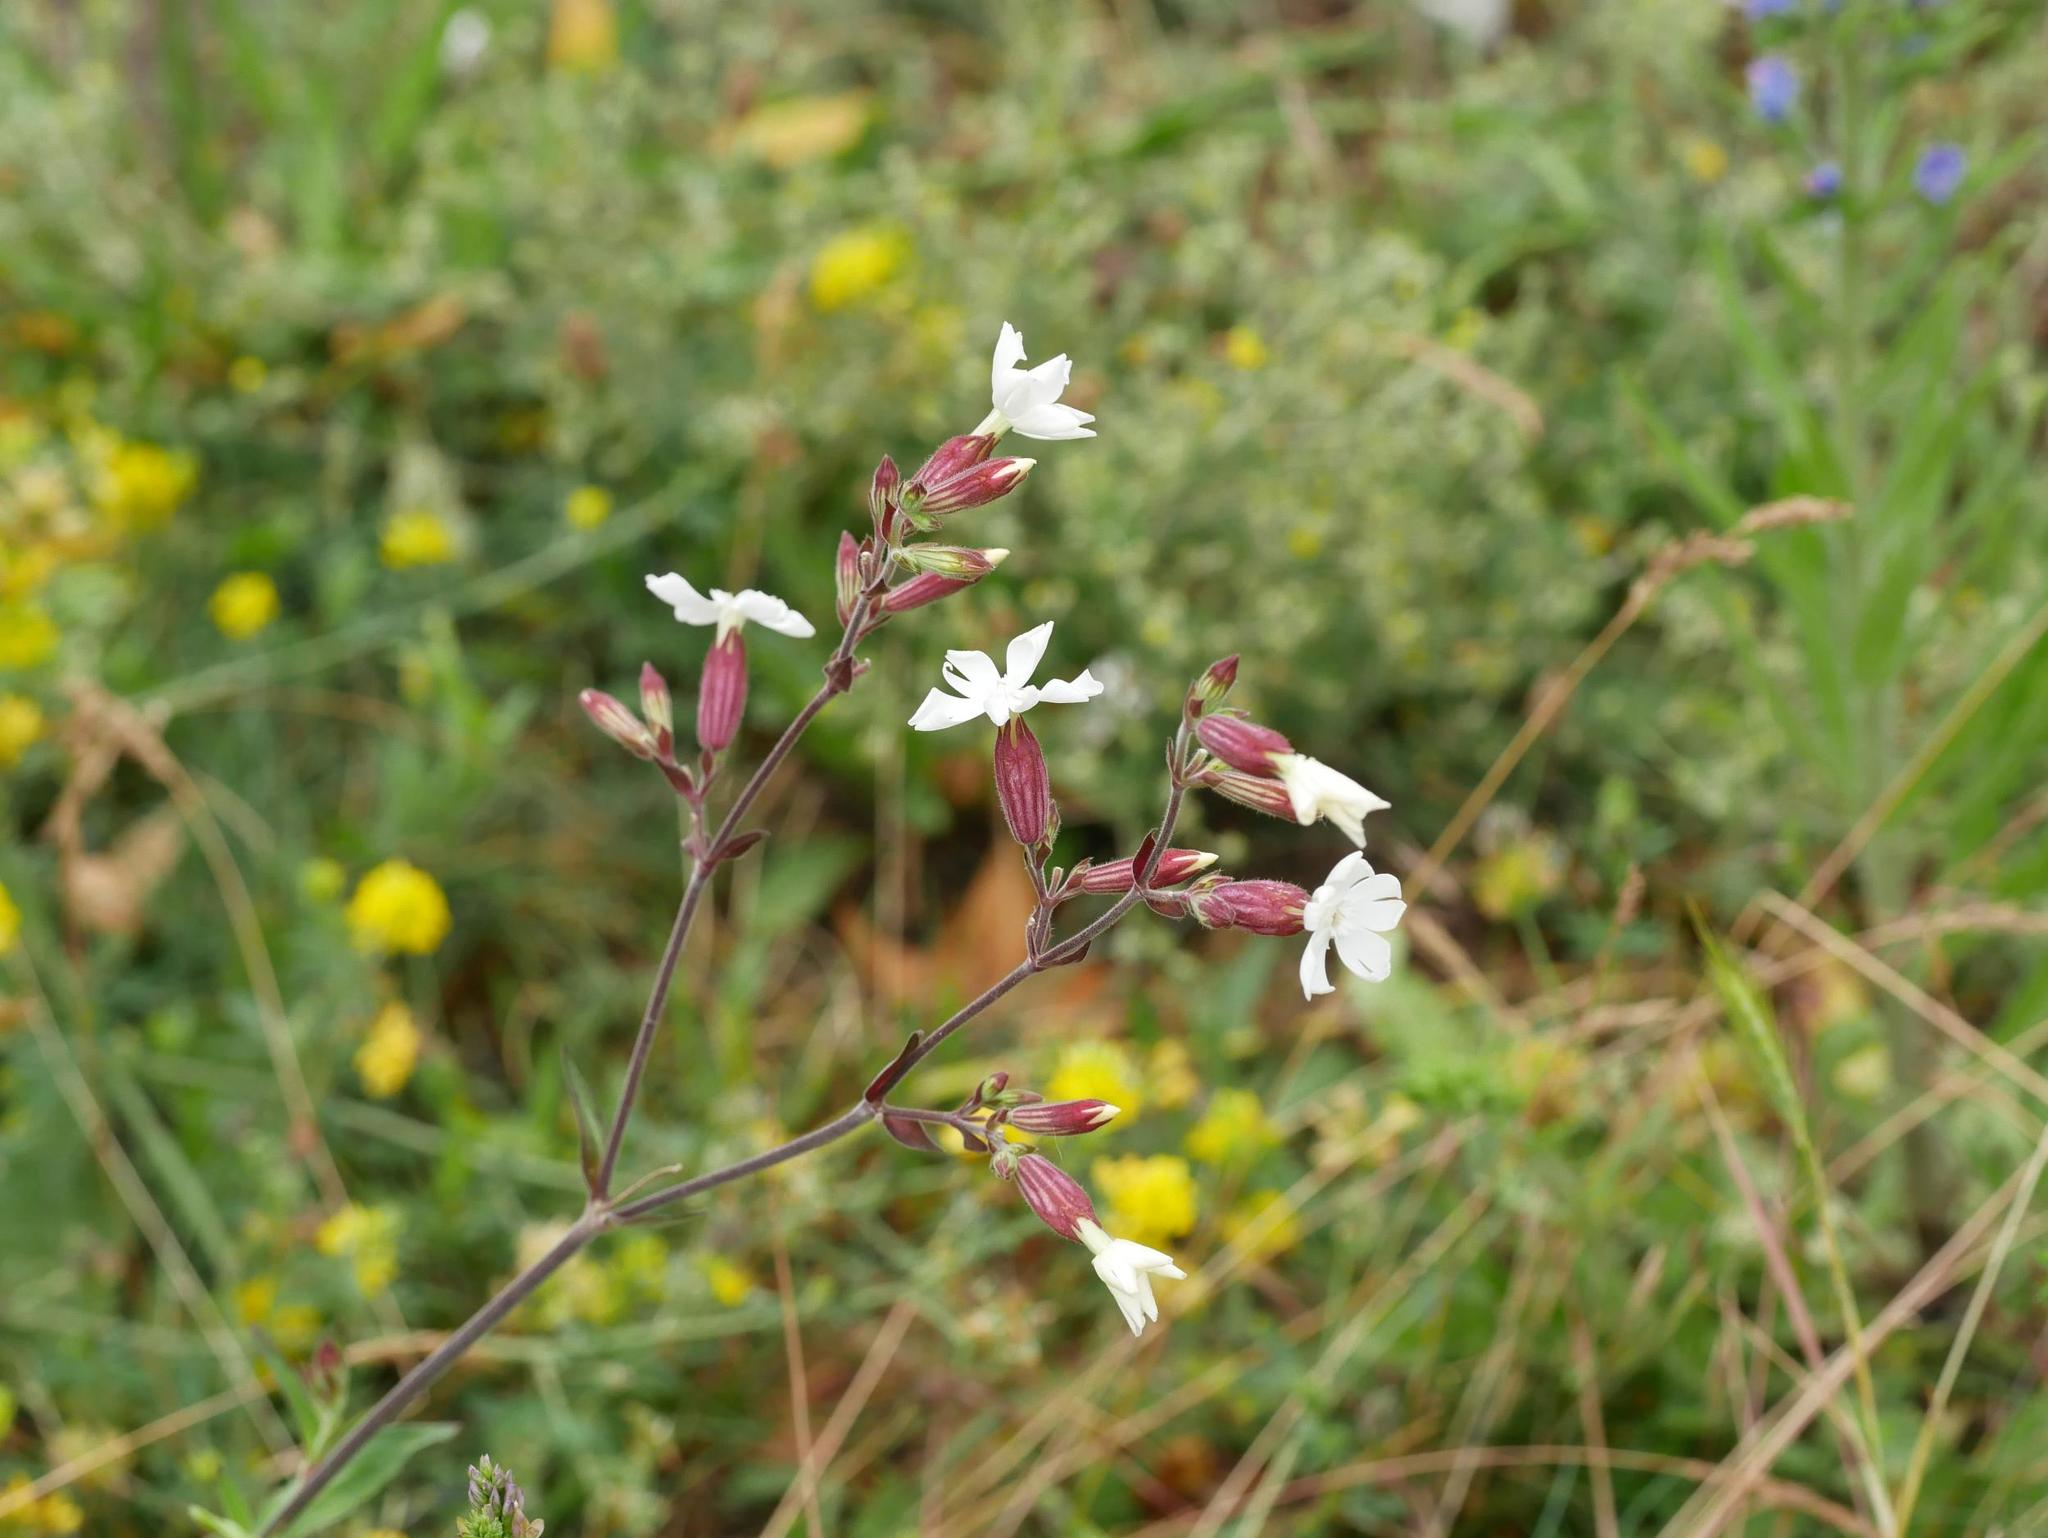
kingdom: Plantae
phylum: Tracheophyta
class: Magnoliopsida
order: Caryophyllales
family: Caryophyllaceae
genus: Silene
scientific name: Silene latifolia
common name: White campion
